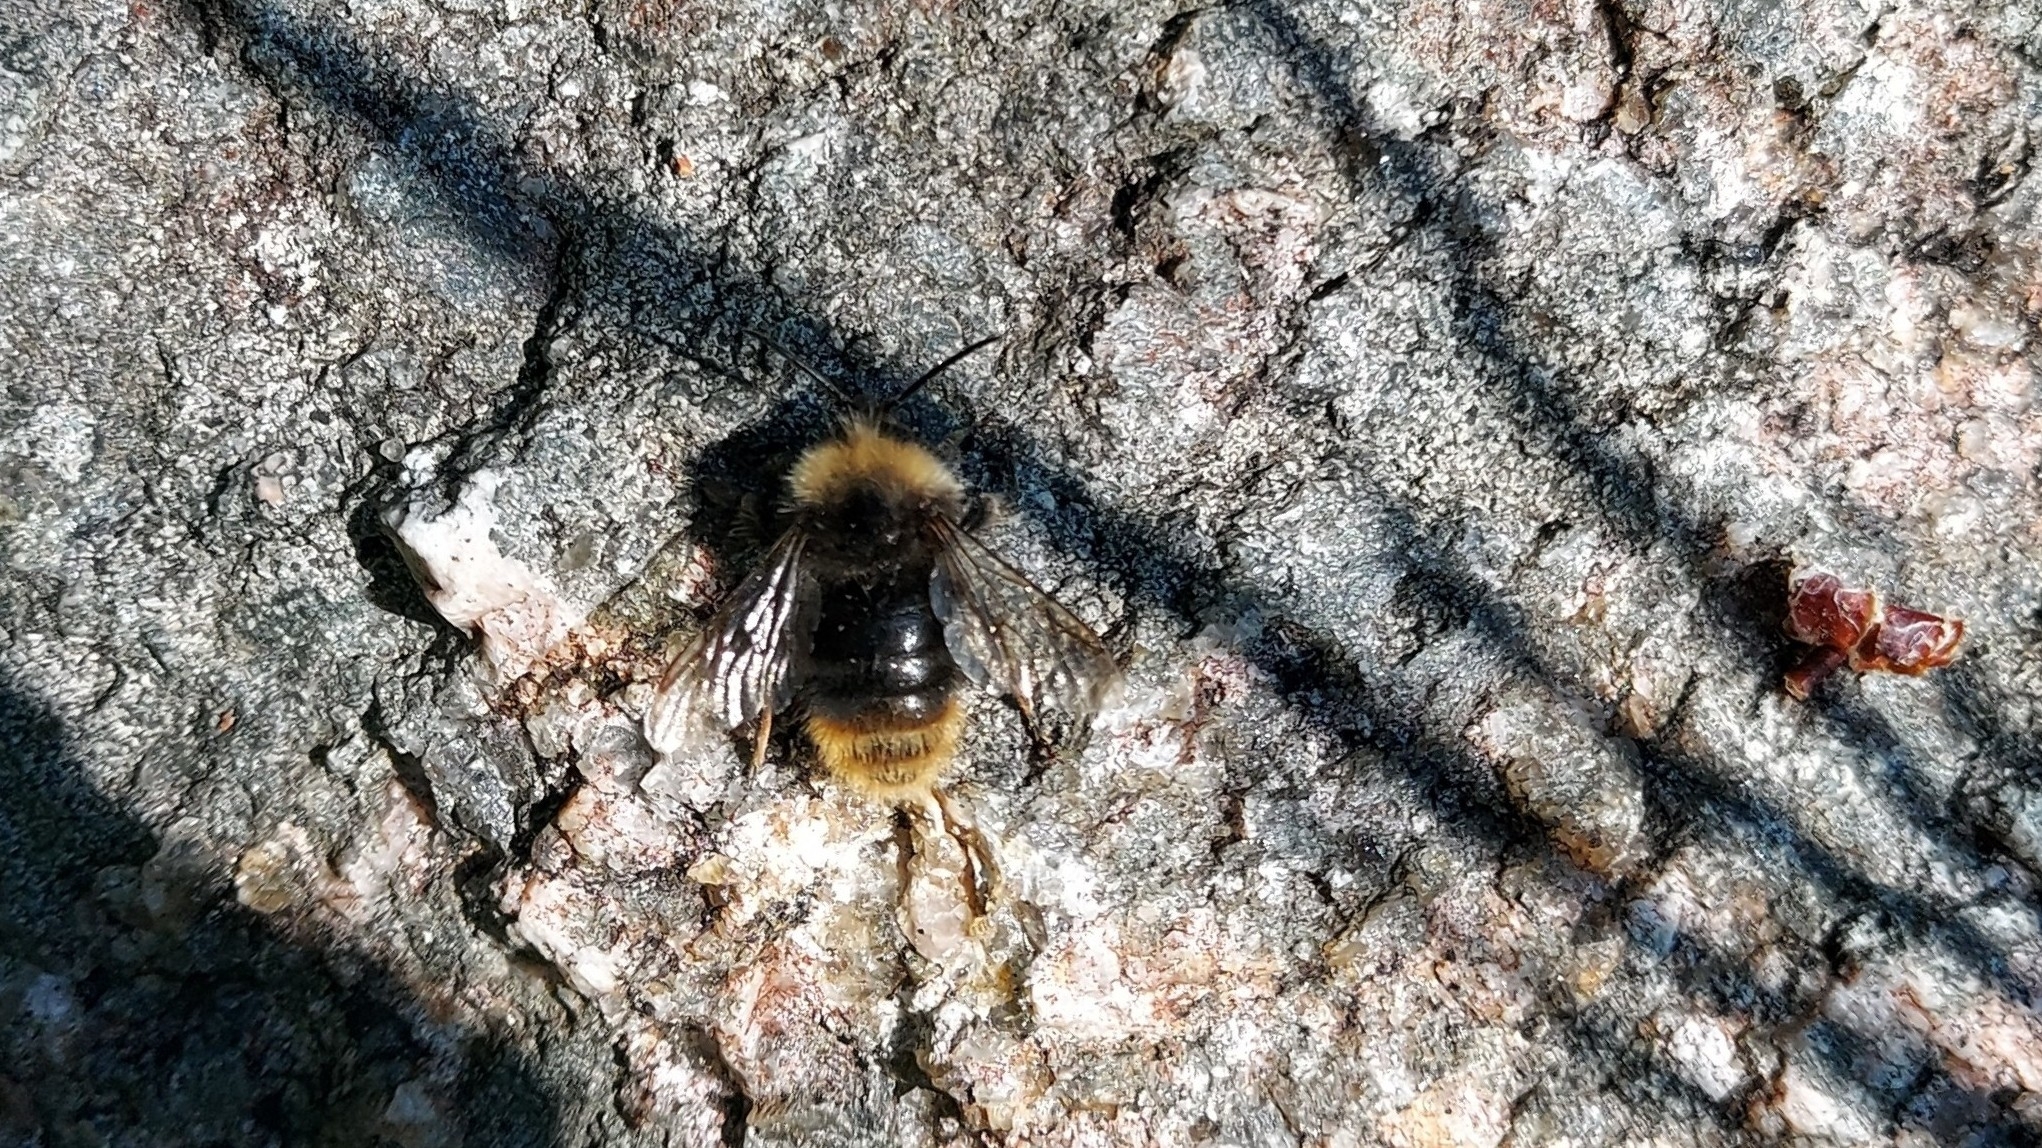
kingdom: Animalia
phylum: Arthropoda
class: Insecta
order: Hymenoptera
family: Apidae
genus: Bombus
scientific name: Bombus pratorum
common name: Early humble-bee
